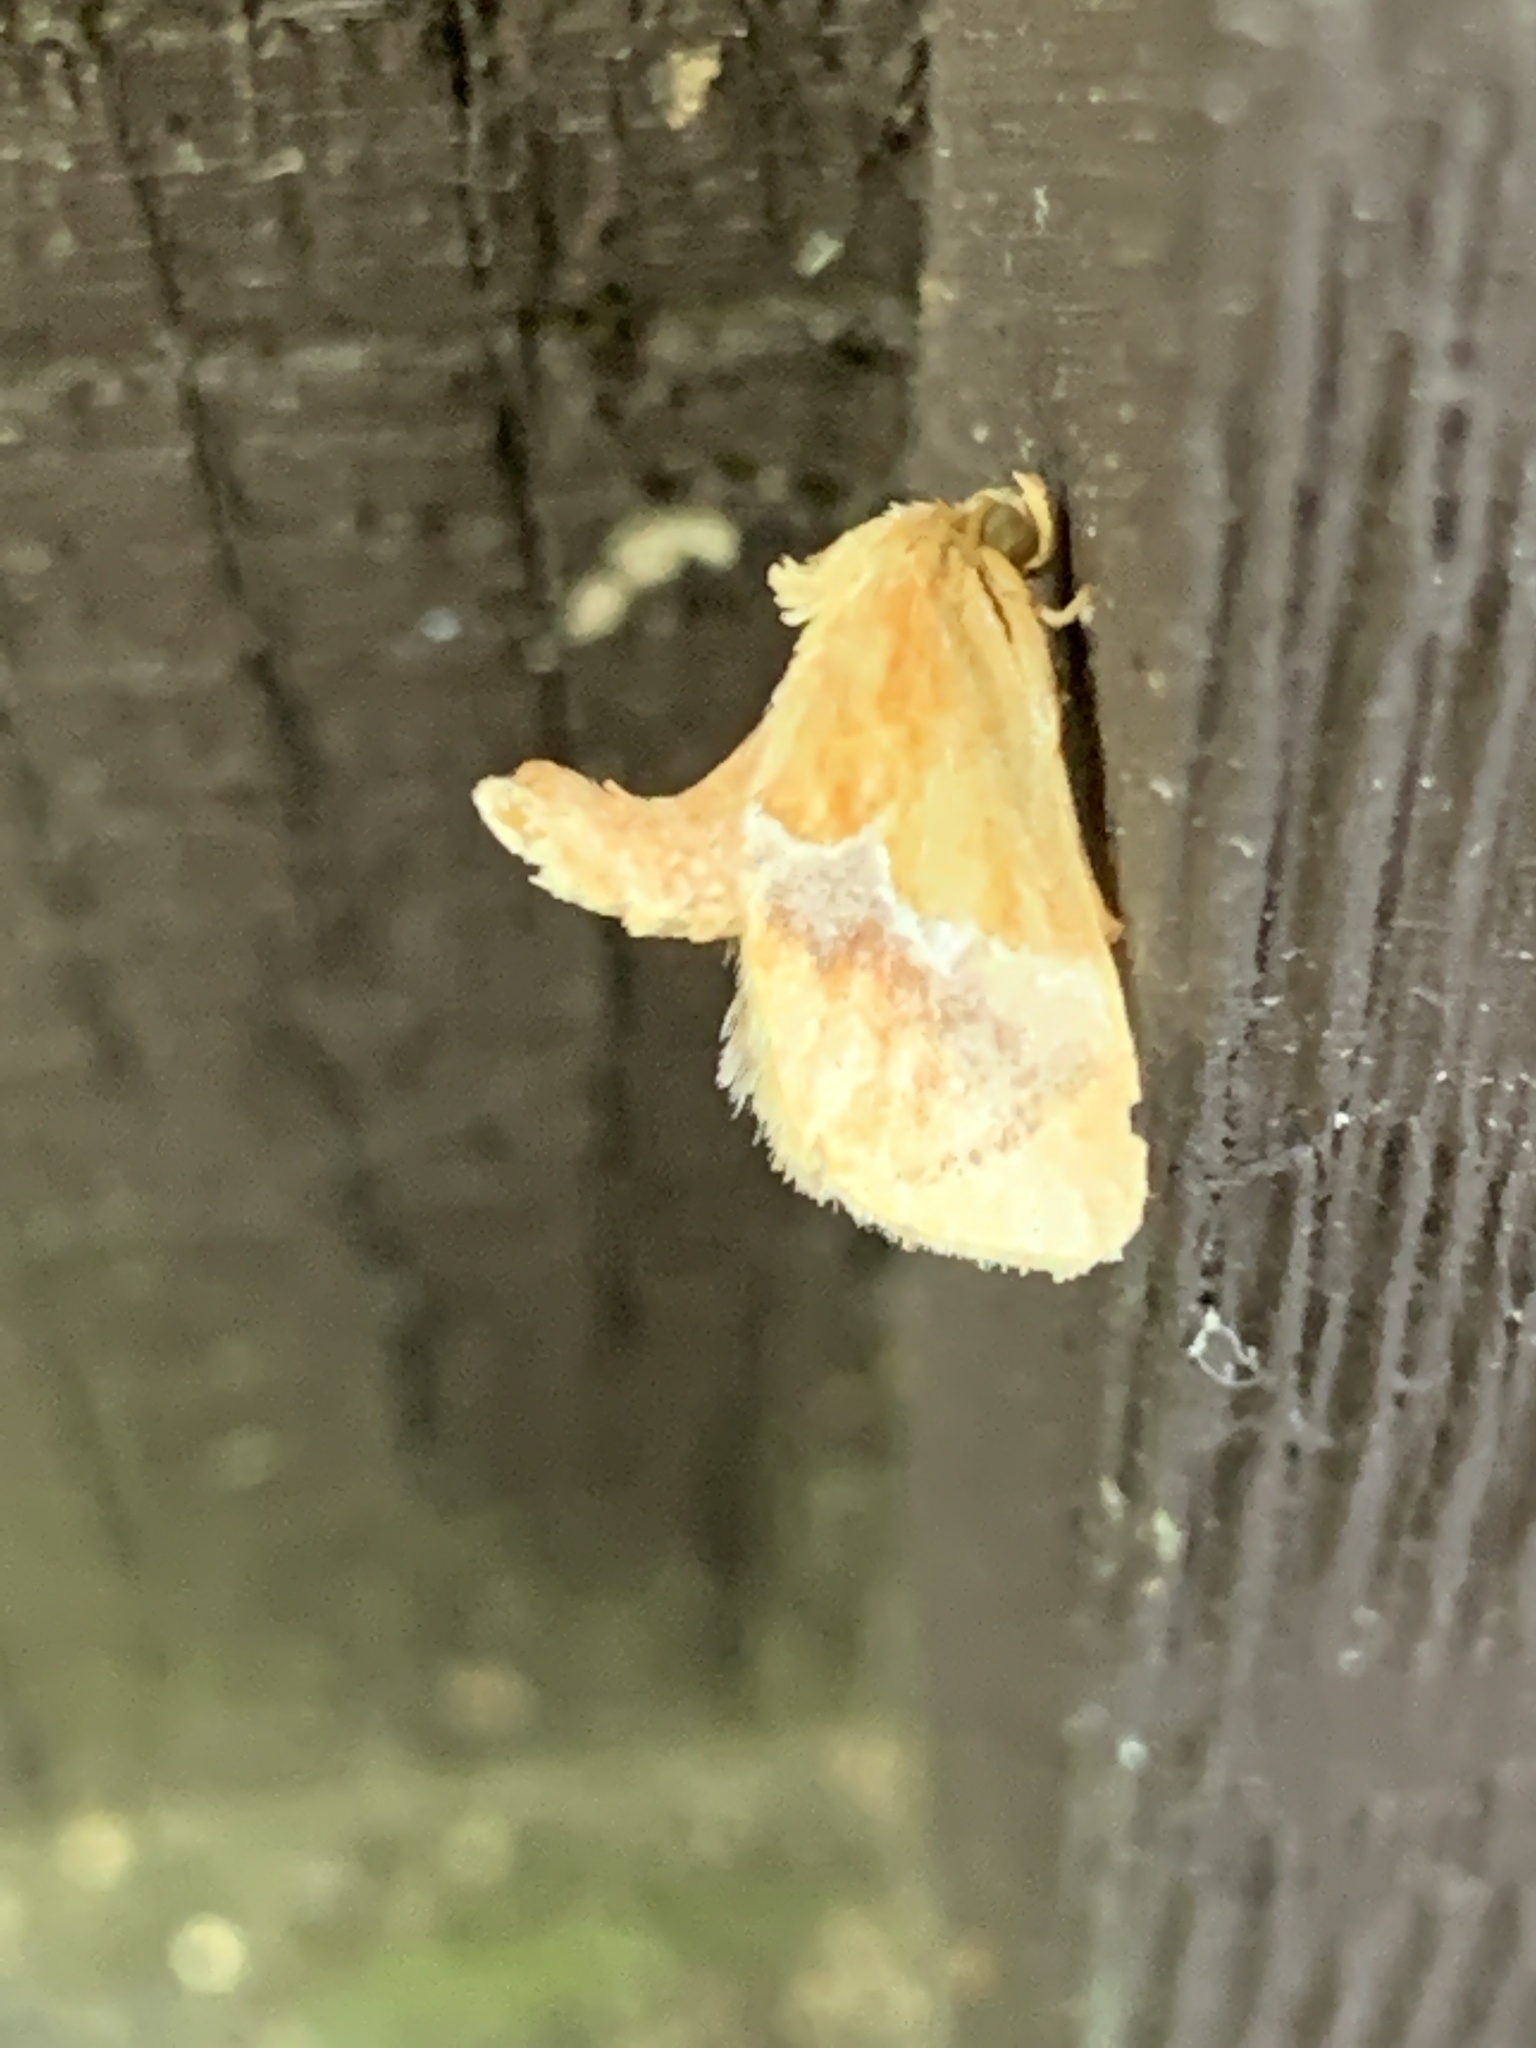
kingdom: Animalia
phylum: Arthropoda
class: Insecta
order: Lepidoptera
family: Limacodidae
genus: Lithacodes
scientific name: Lithacodes fasciola
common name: Yellow-shouldered slug moth
